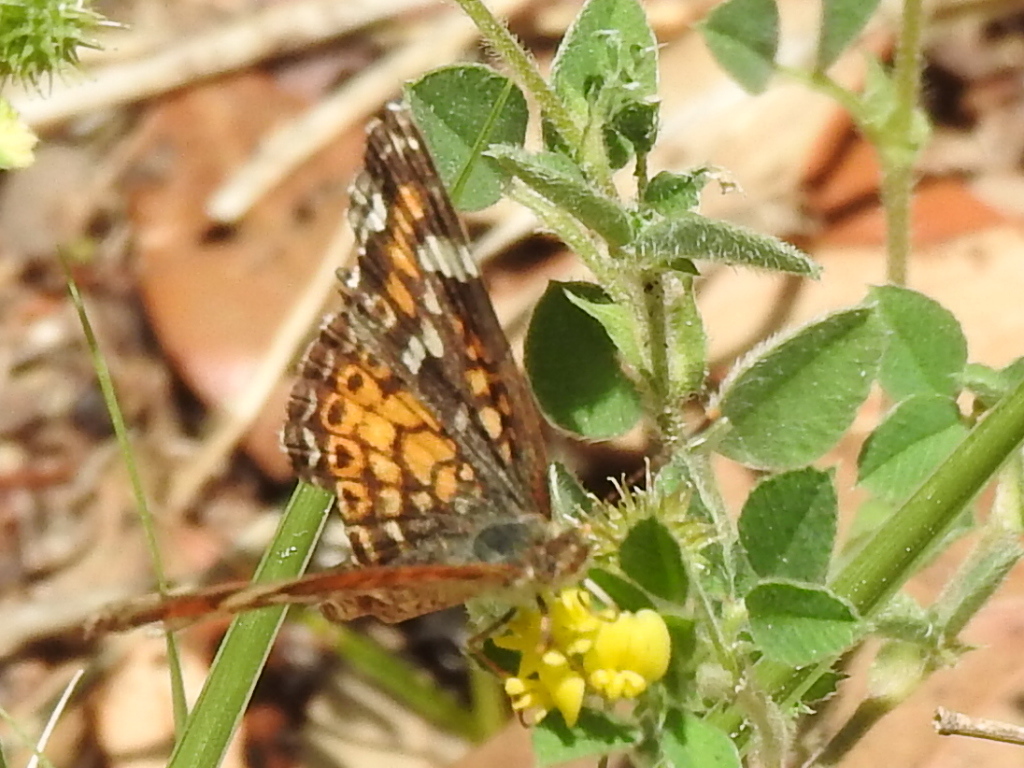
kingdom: Animalia
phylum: Arthropoda
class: Insecta
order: Lepidoptera
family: Nymphalidae
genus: Phyciodes
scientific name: Phyciodes phaon
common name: Phaon crescent
